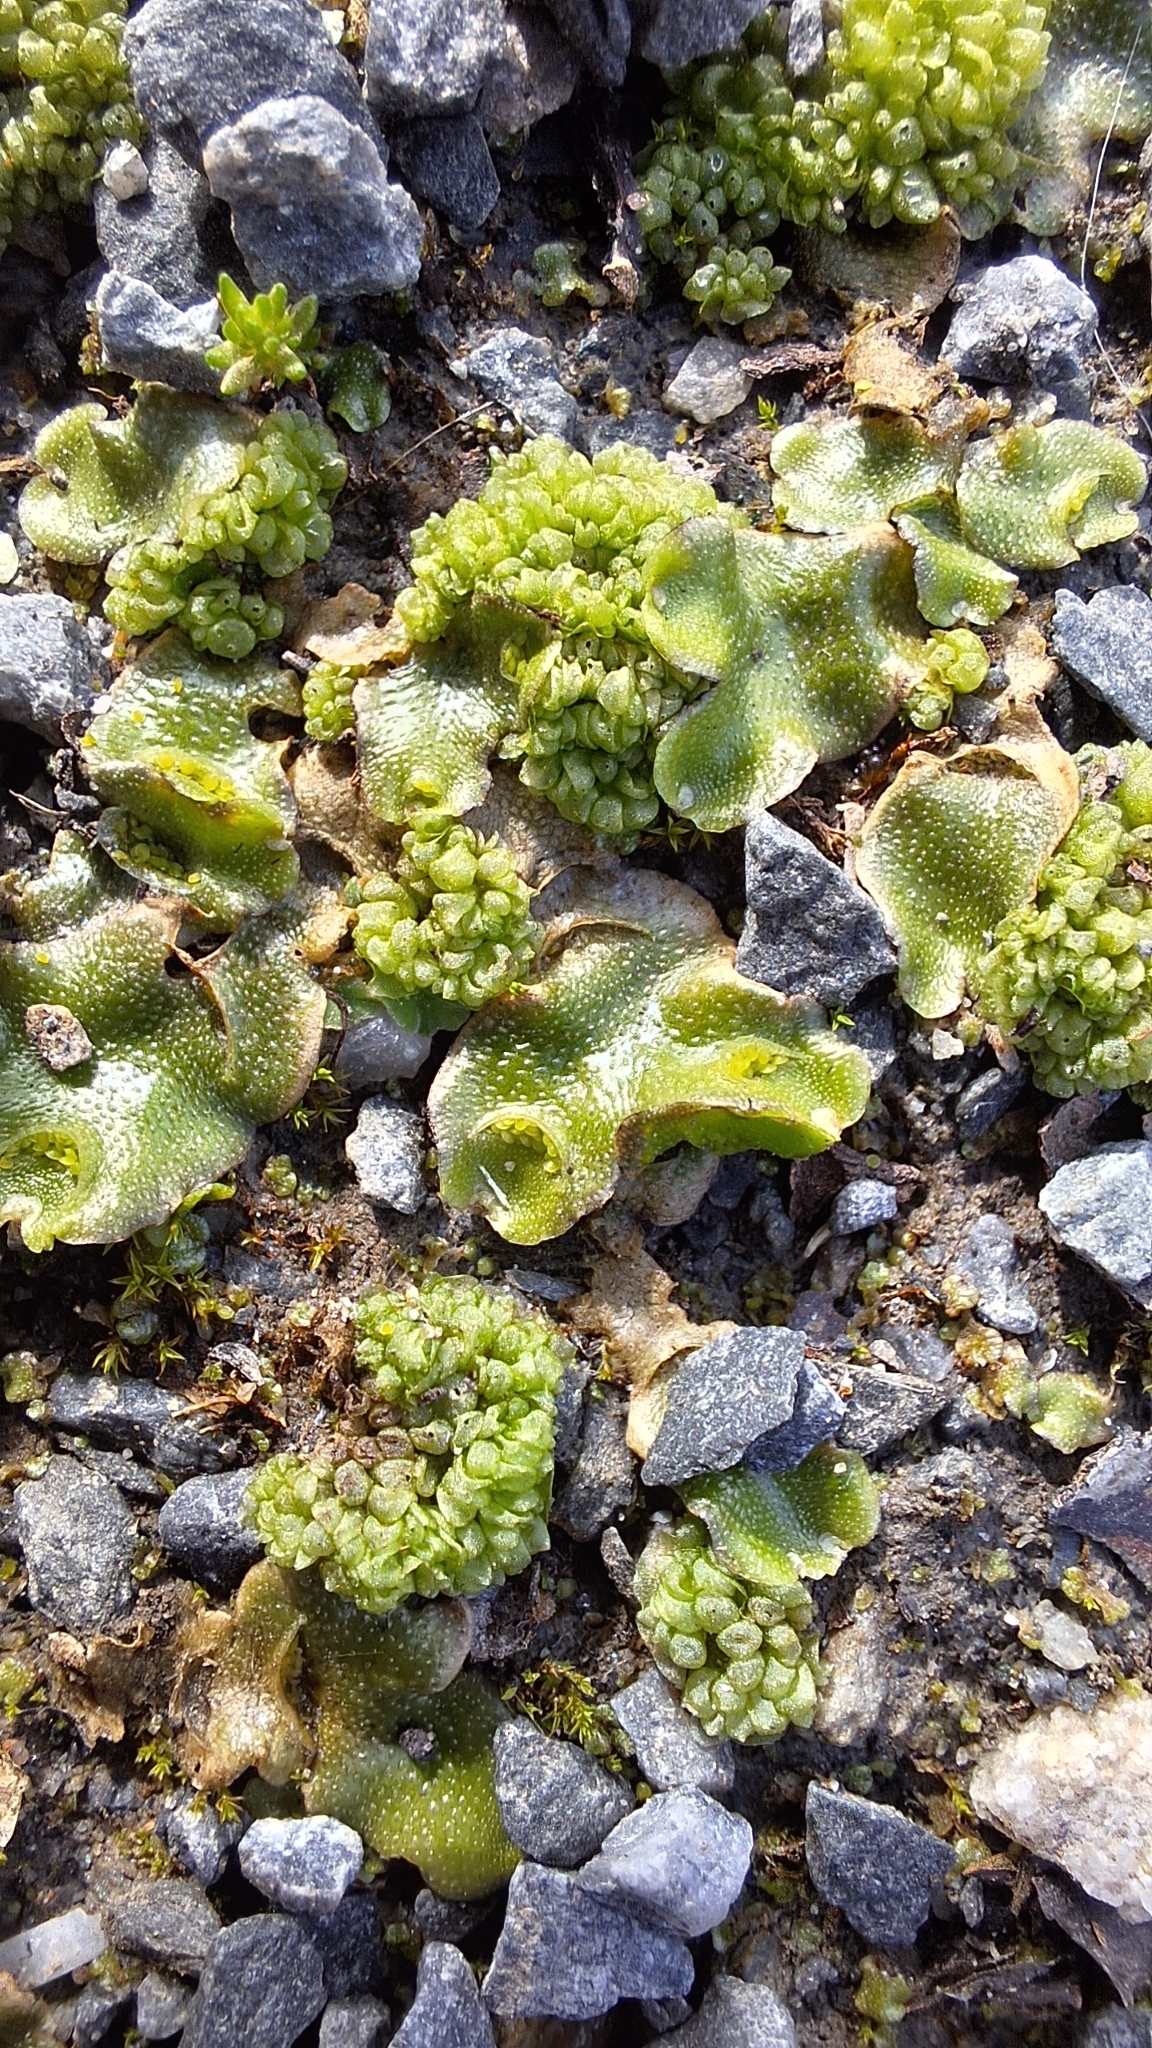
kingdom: Plantae
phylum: Marchantiophyta
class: Marchantiopsida
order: Lunulariales
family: Lunulariaceae
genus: Lunularia
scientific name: Lunularia cruciata
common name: Crescent-cup liverwort
